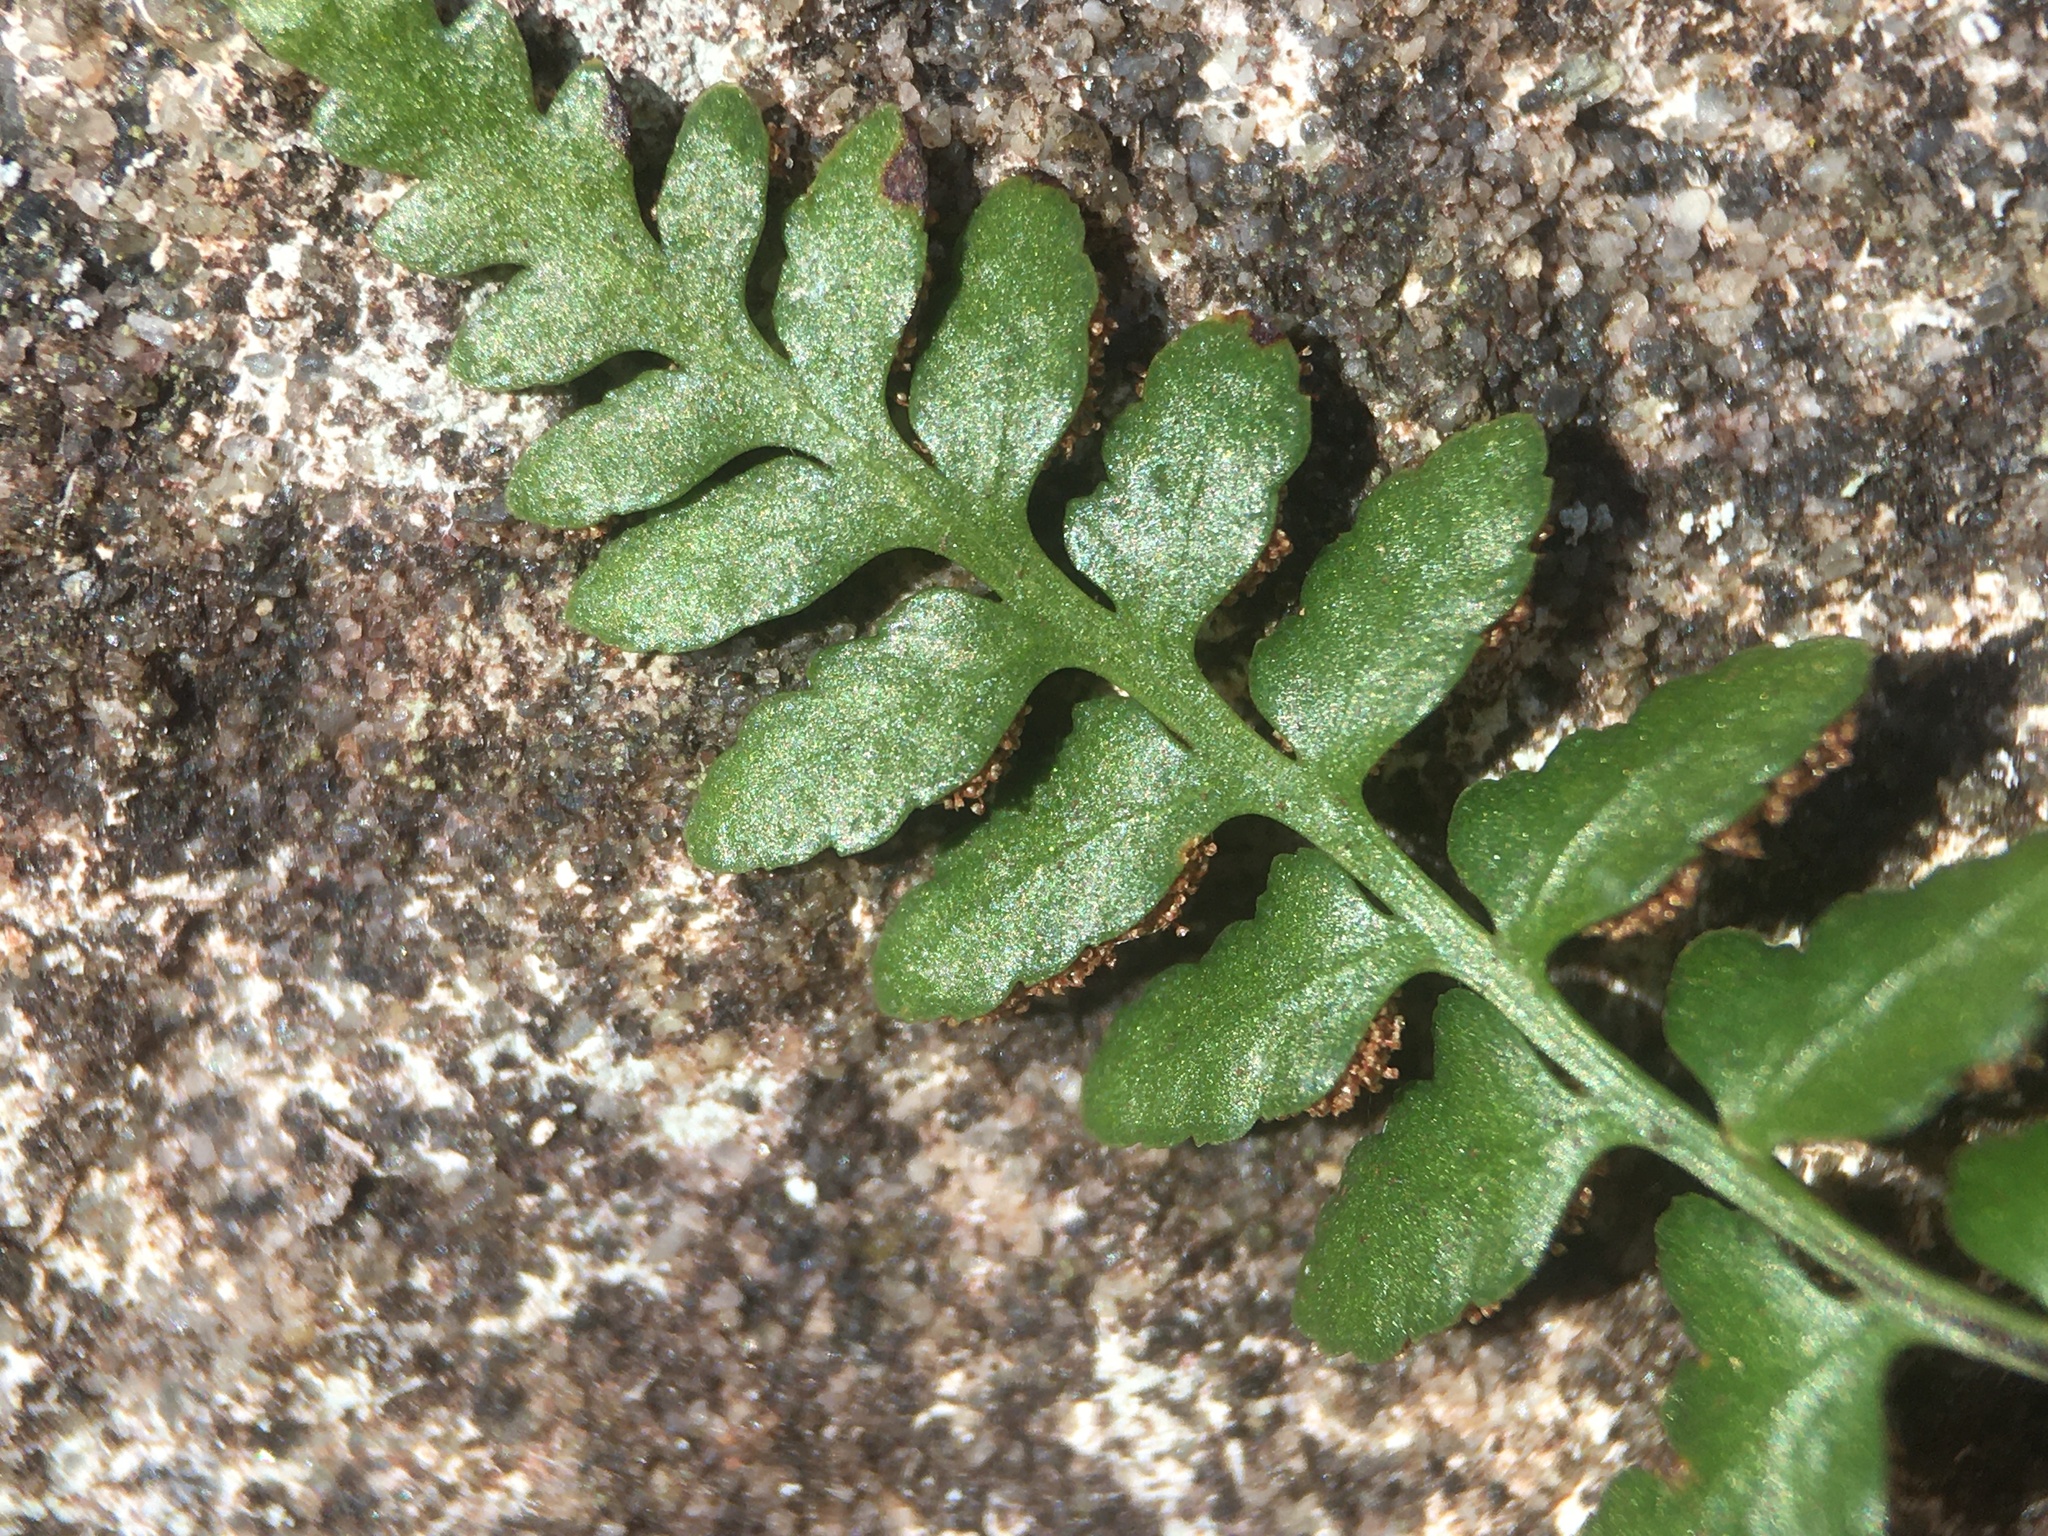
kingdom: Plantae
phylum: Tracheophyta
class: Polypodiopsida
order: Polypodiales
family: Aspleniaceae
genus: Asplenium
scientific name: Asplenium bradleyi
